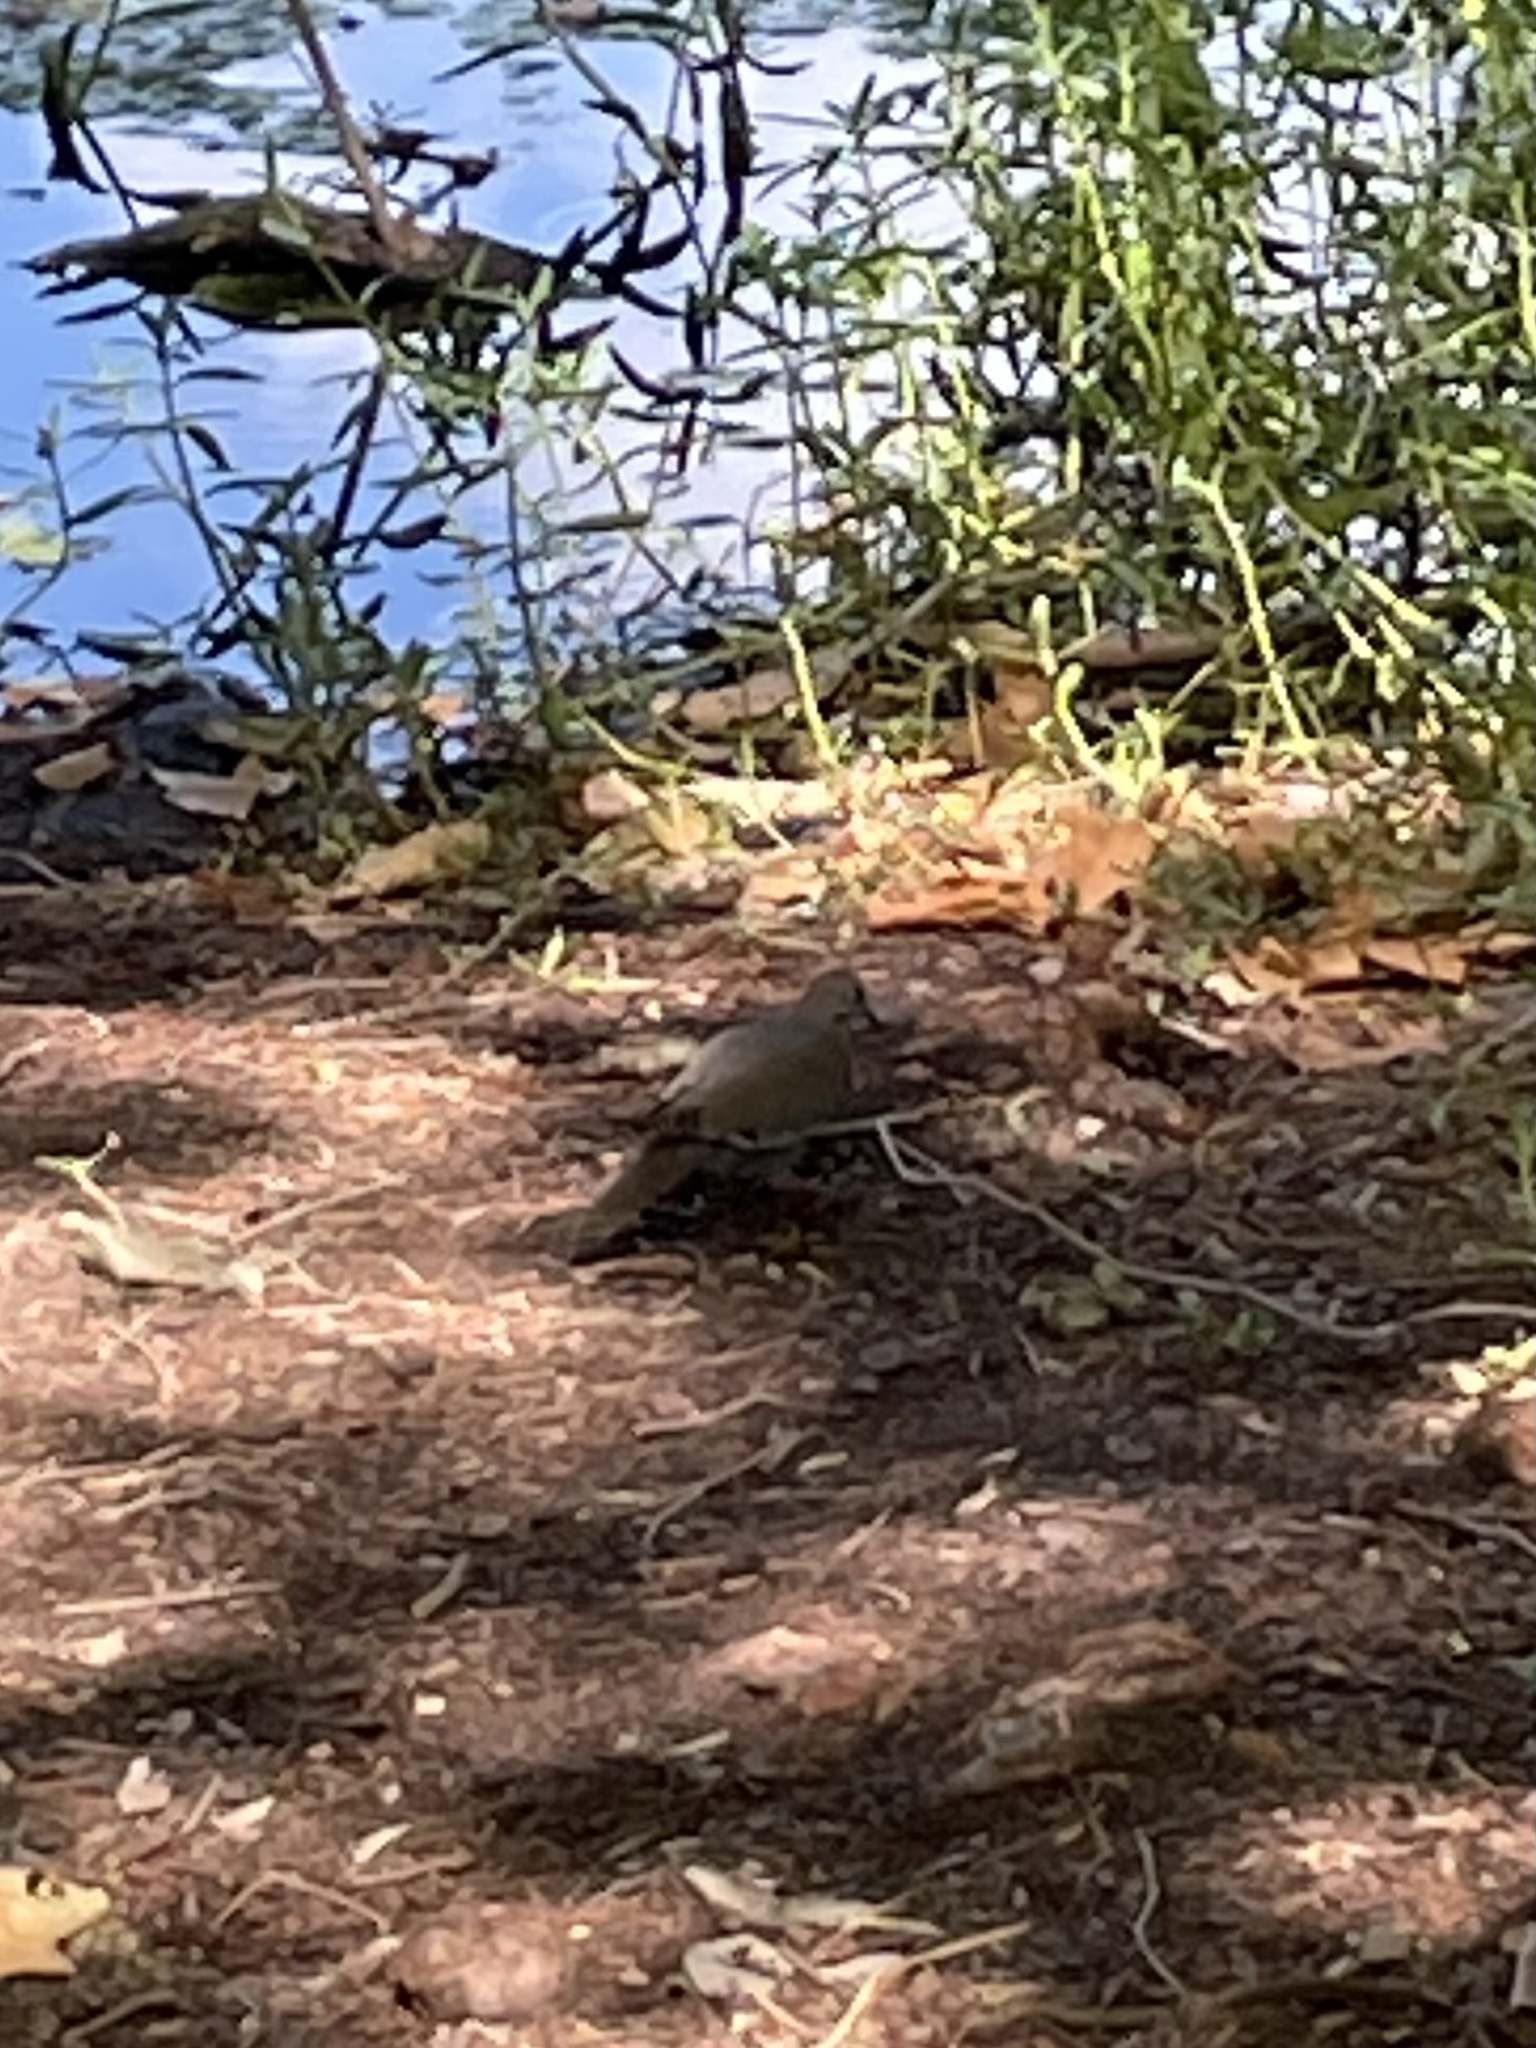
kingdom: Animalia
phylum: Chordata
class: Aves
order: Columbiformes
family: Columbidae
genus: Zenaida
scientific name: Zenaida asiatica
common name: White-winged dove
